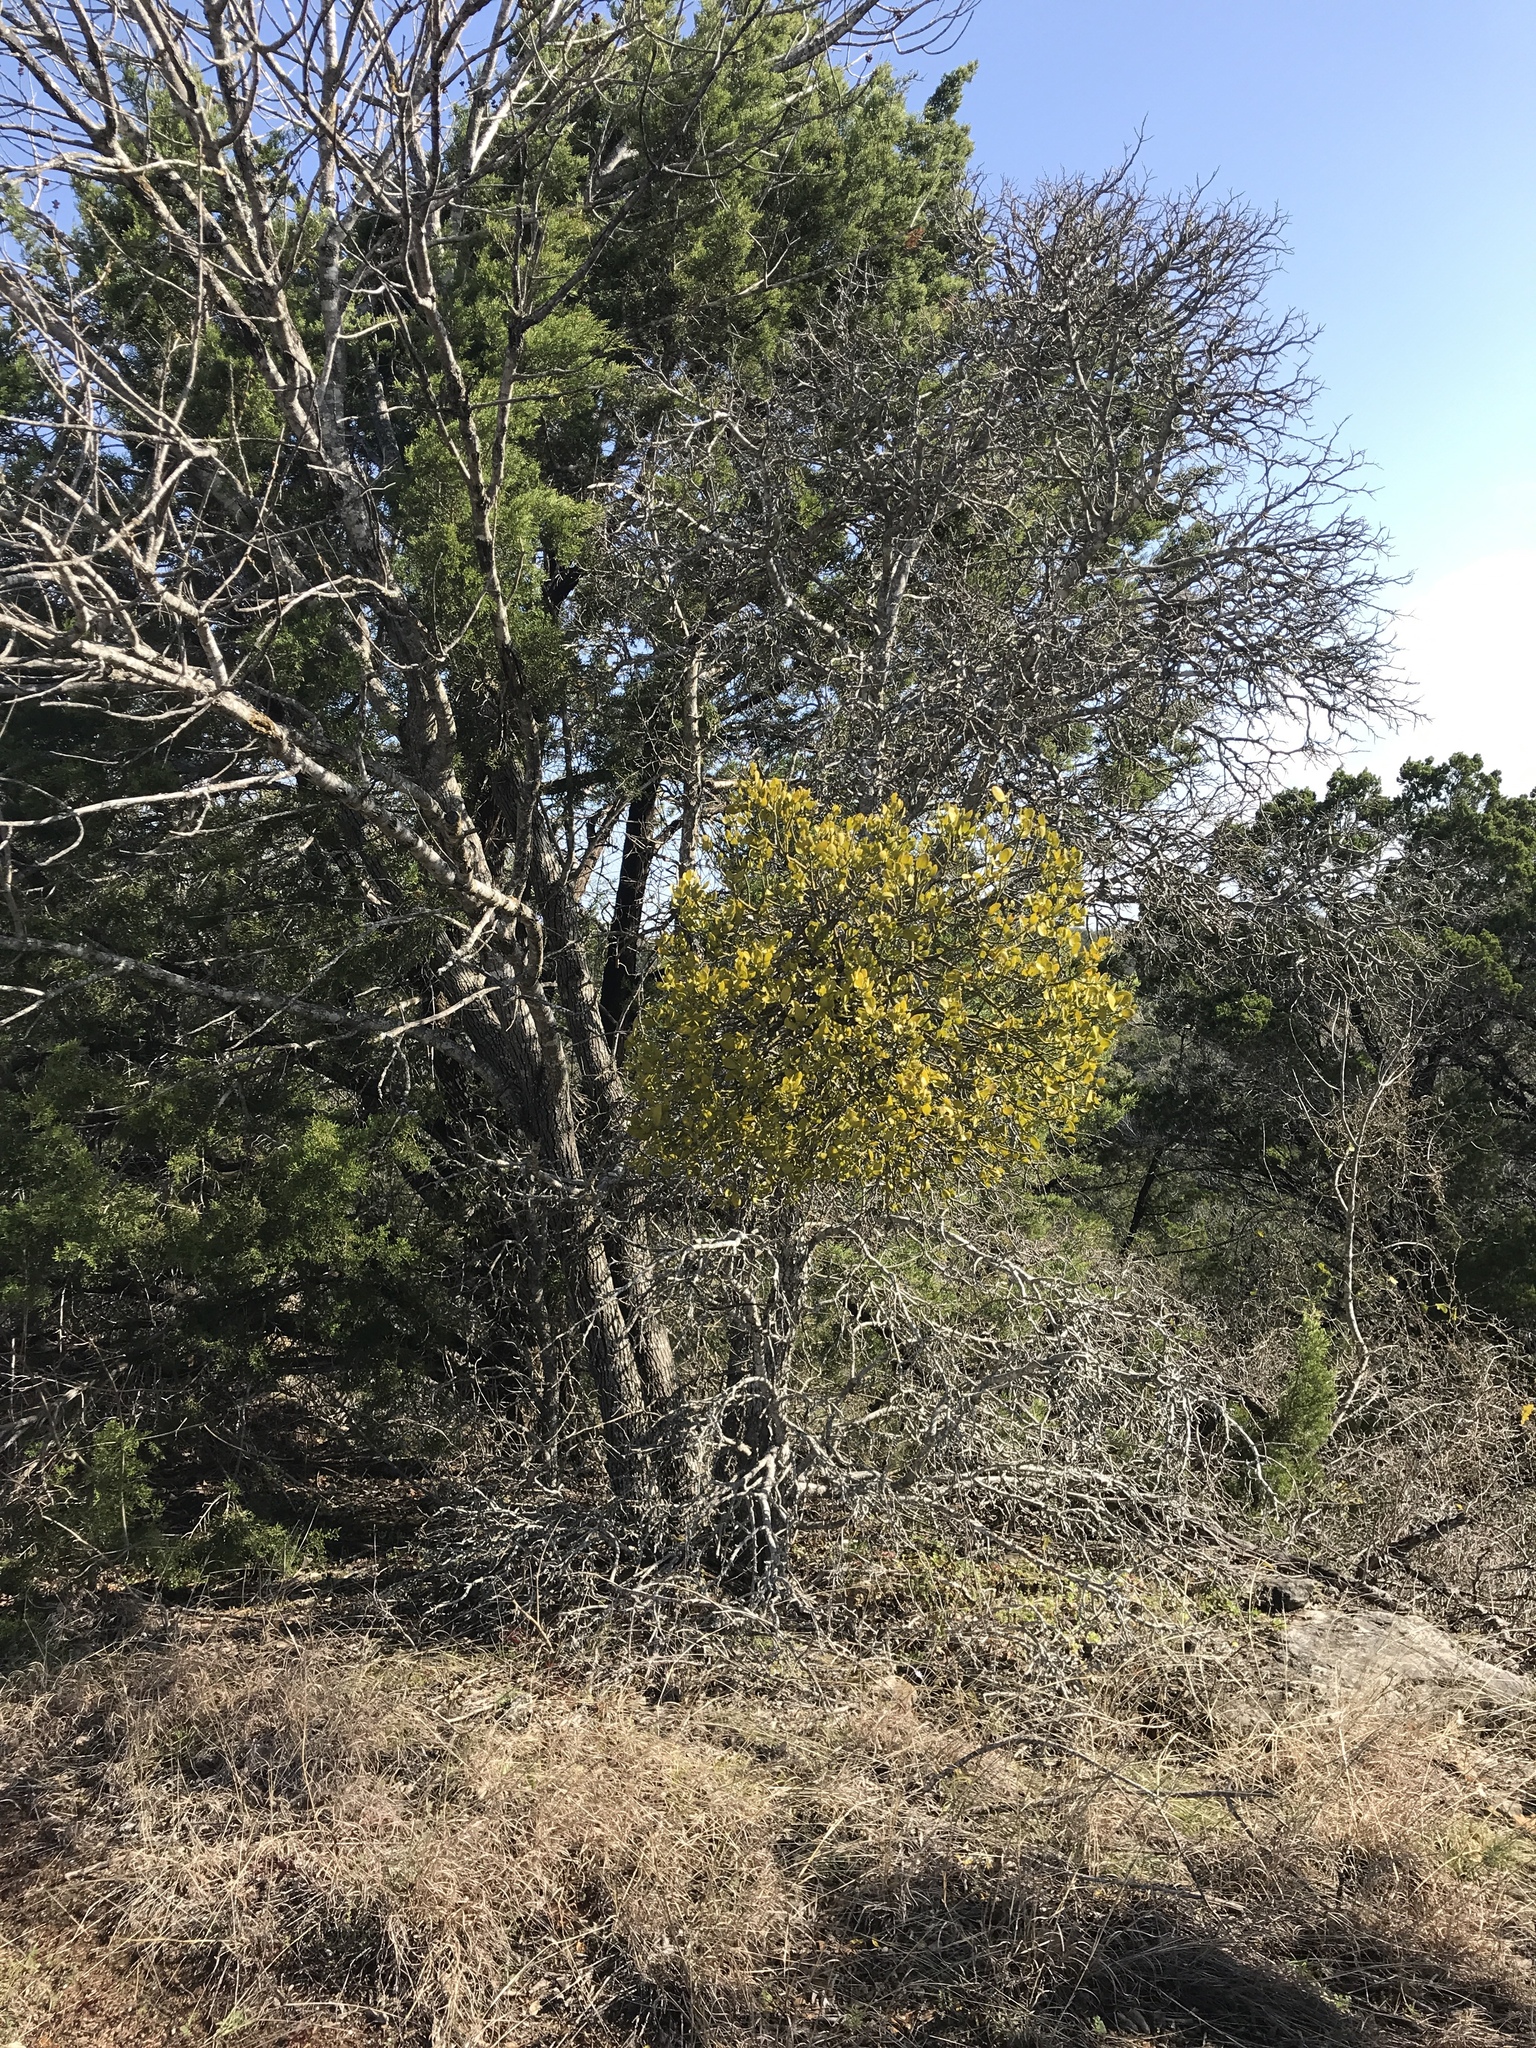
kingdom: Plantae
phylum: Tracheophyta
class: Magnoliopsida
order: Santalales
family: Viscaceae
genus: Phoradendron
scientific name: Phoradendron leucarpum
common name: Pacific mistletoe
